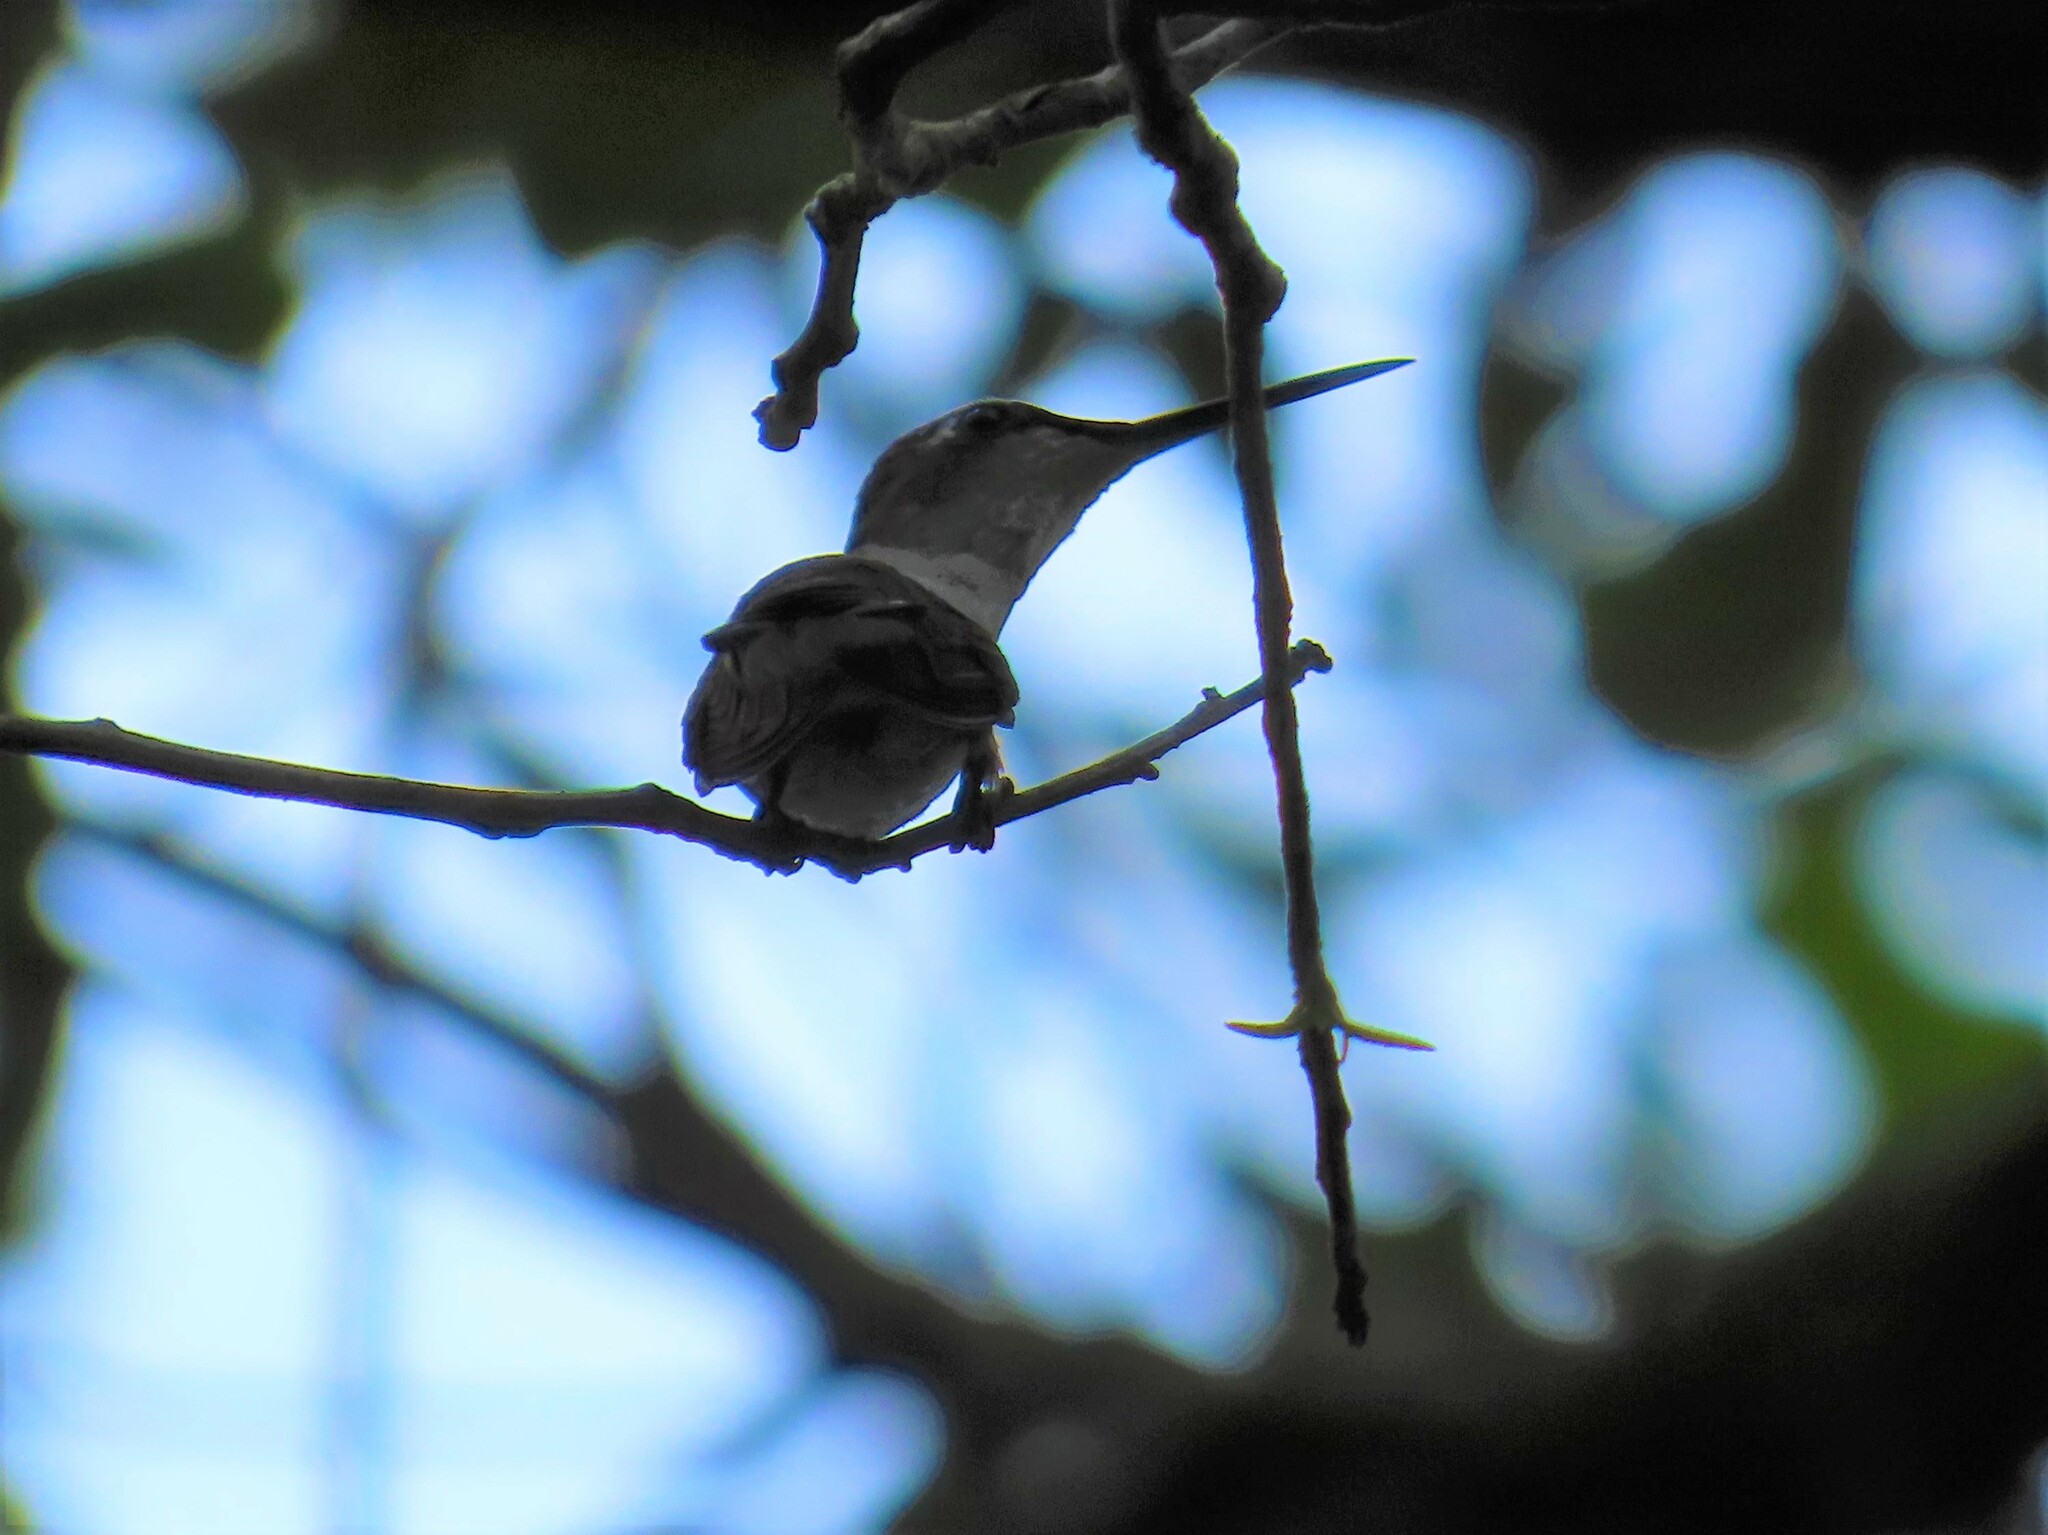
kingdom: Animalia
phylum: Chordata
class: Aves
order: Apodiformes
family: Trochilidae
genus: Archilochus
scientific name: Archilochus colubris
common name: Ruby-throated hummingbird
